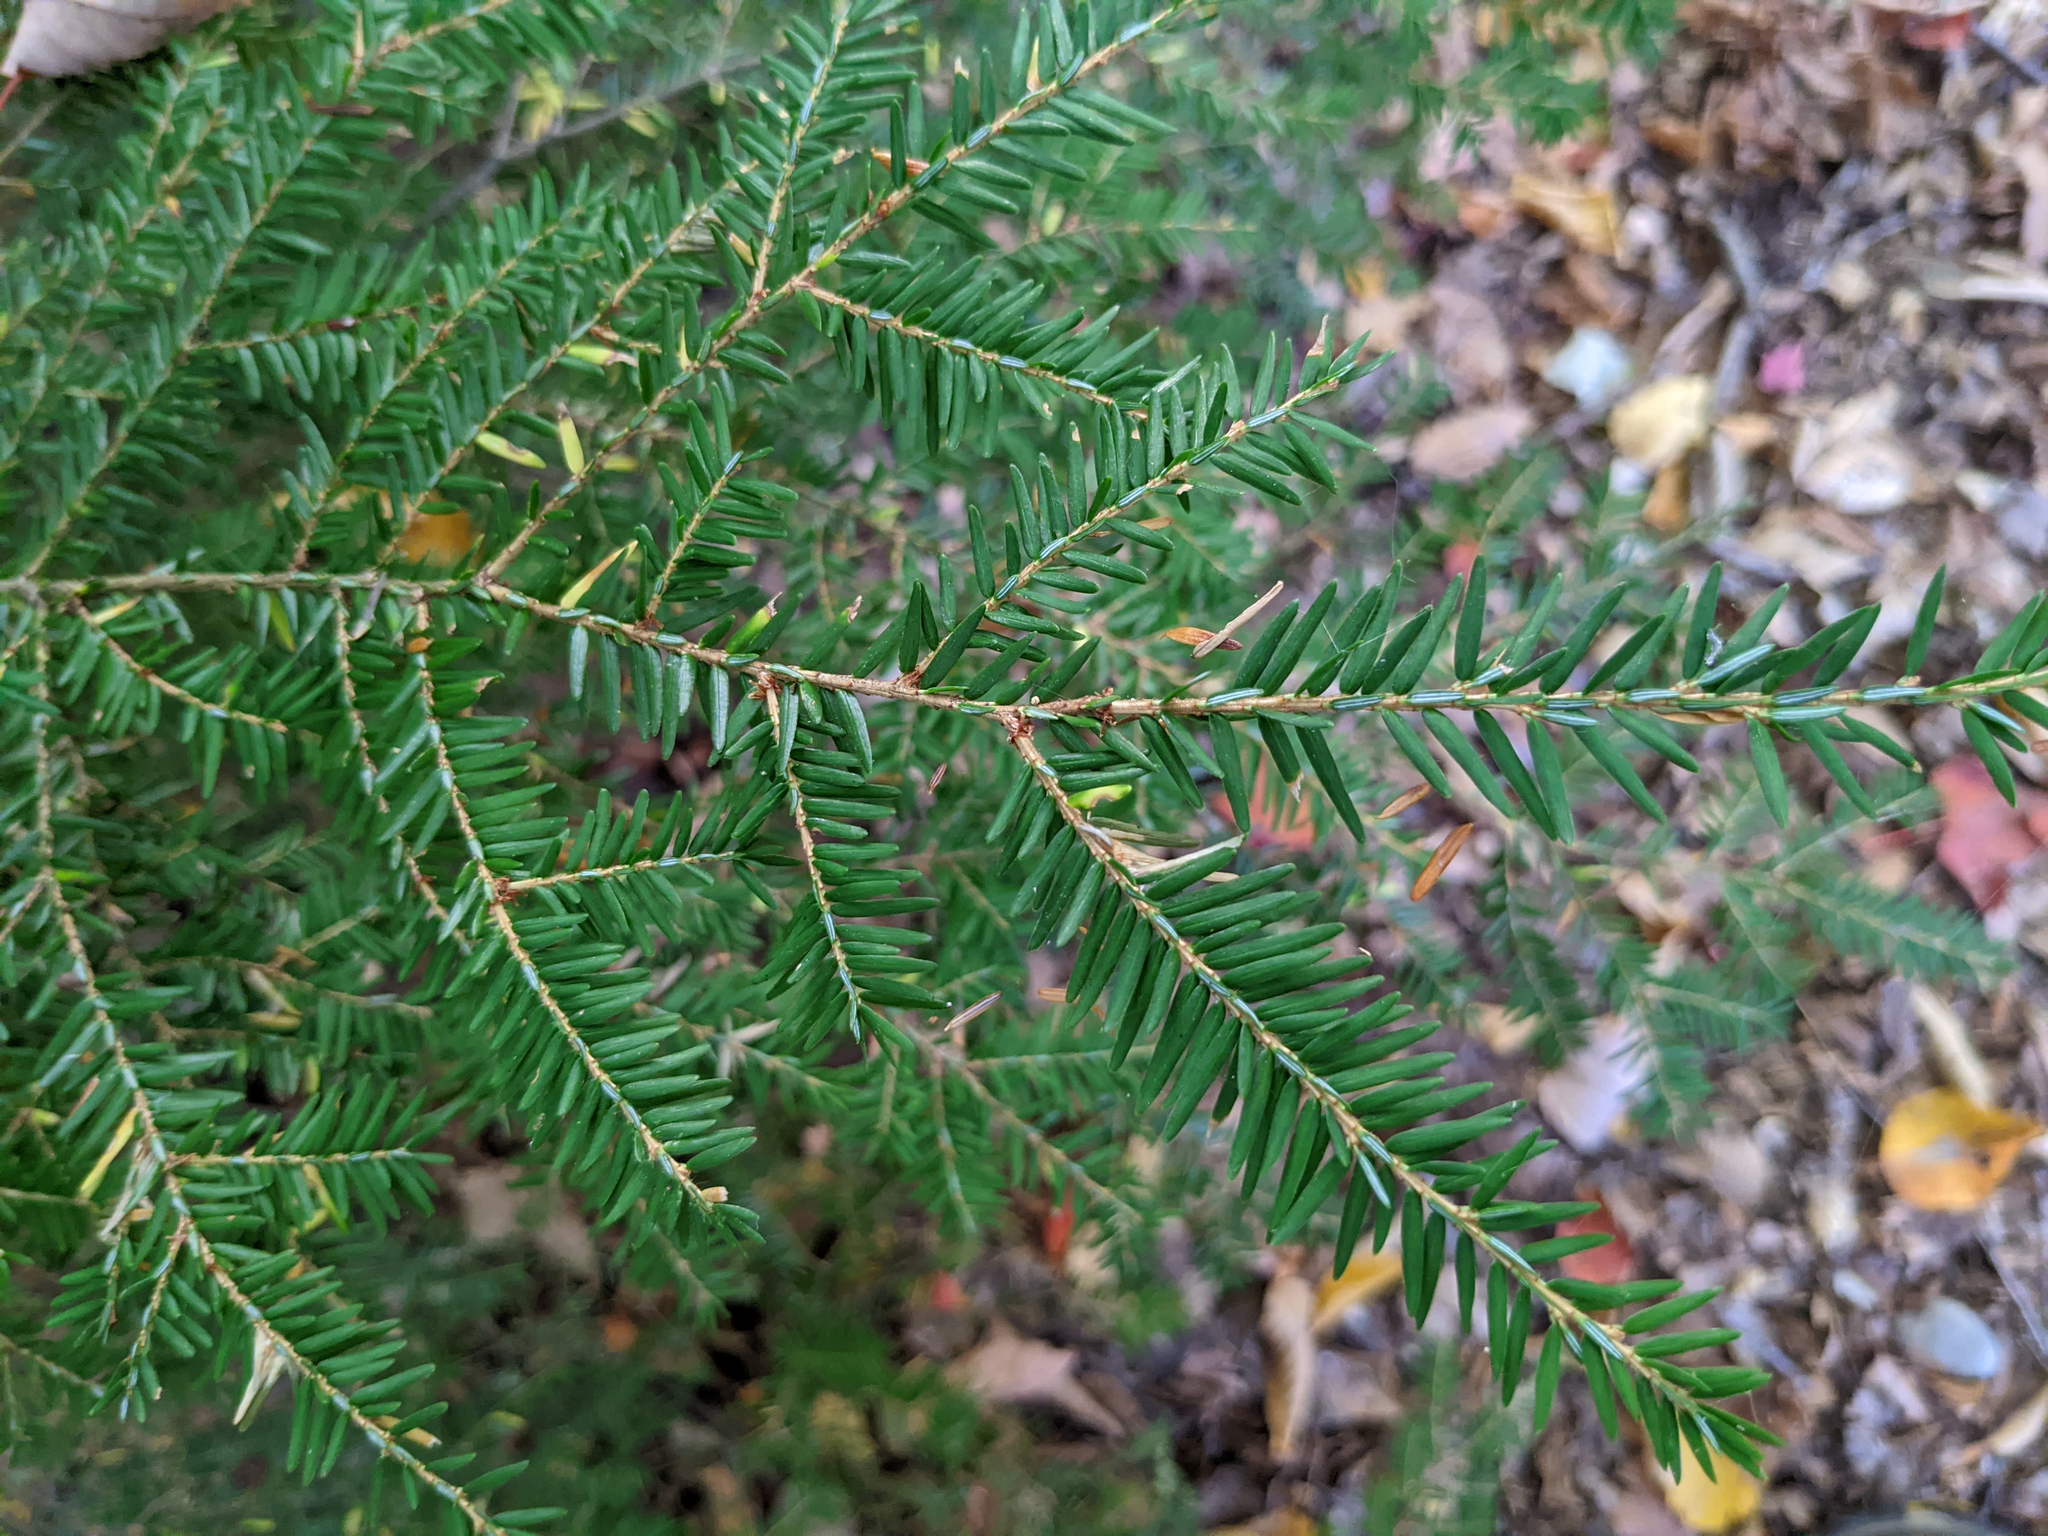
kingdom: Plantae
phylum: Tracheophyta
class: Pinopsida
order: Pinales
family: Pinaceae
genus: Tsuga
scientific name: Tsuga canadensis
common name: Eastern hemlock
